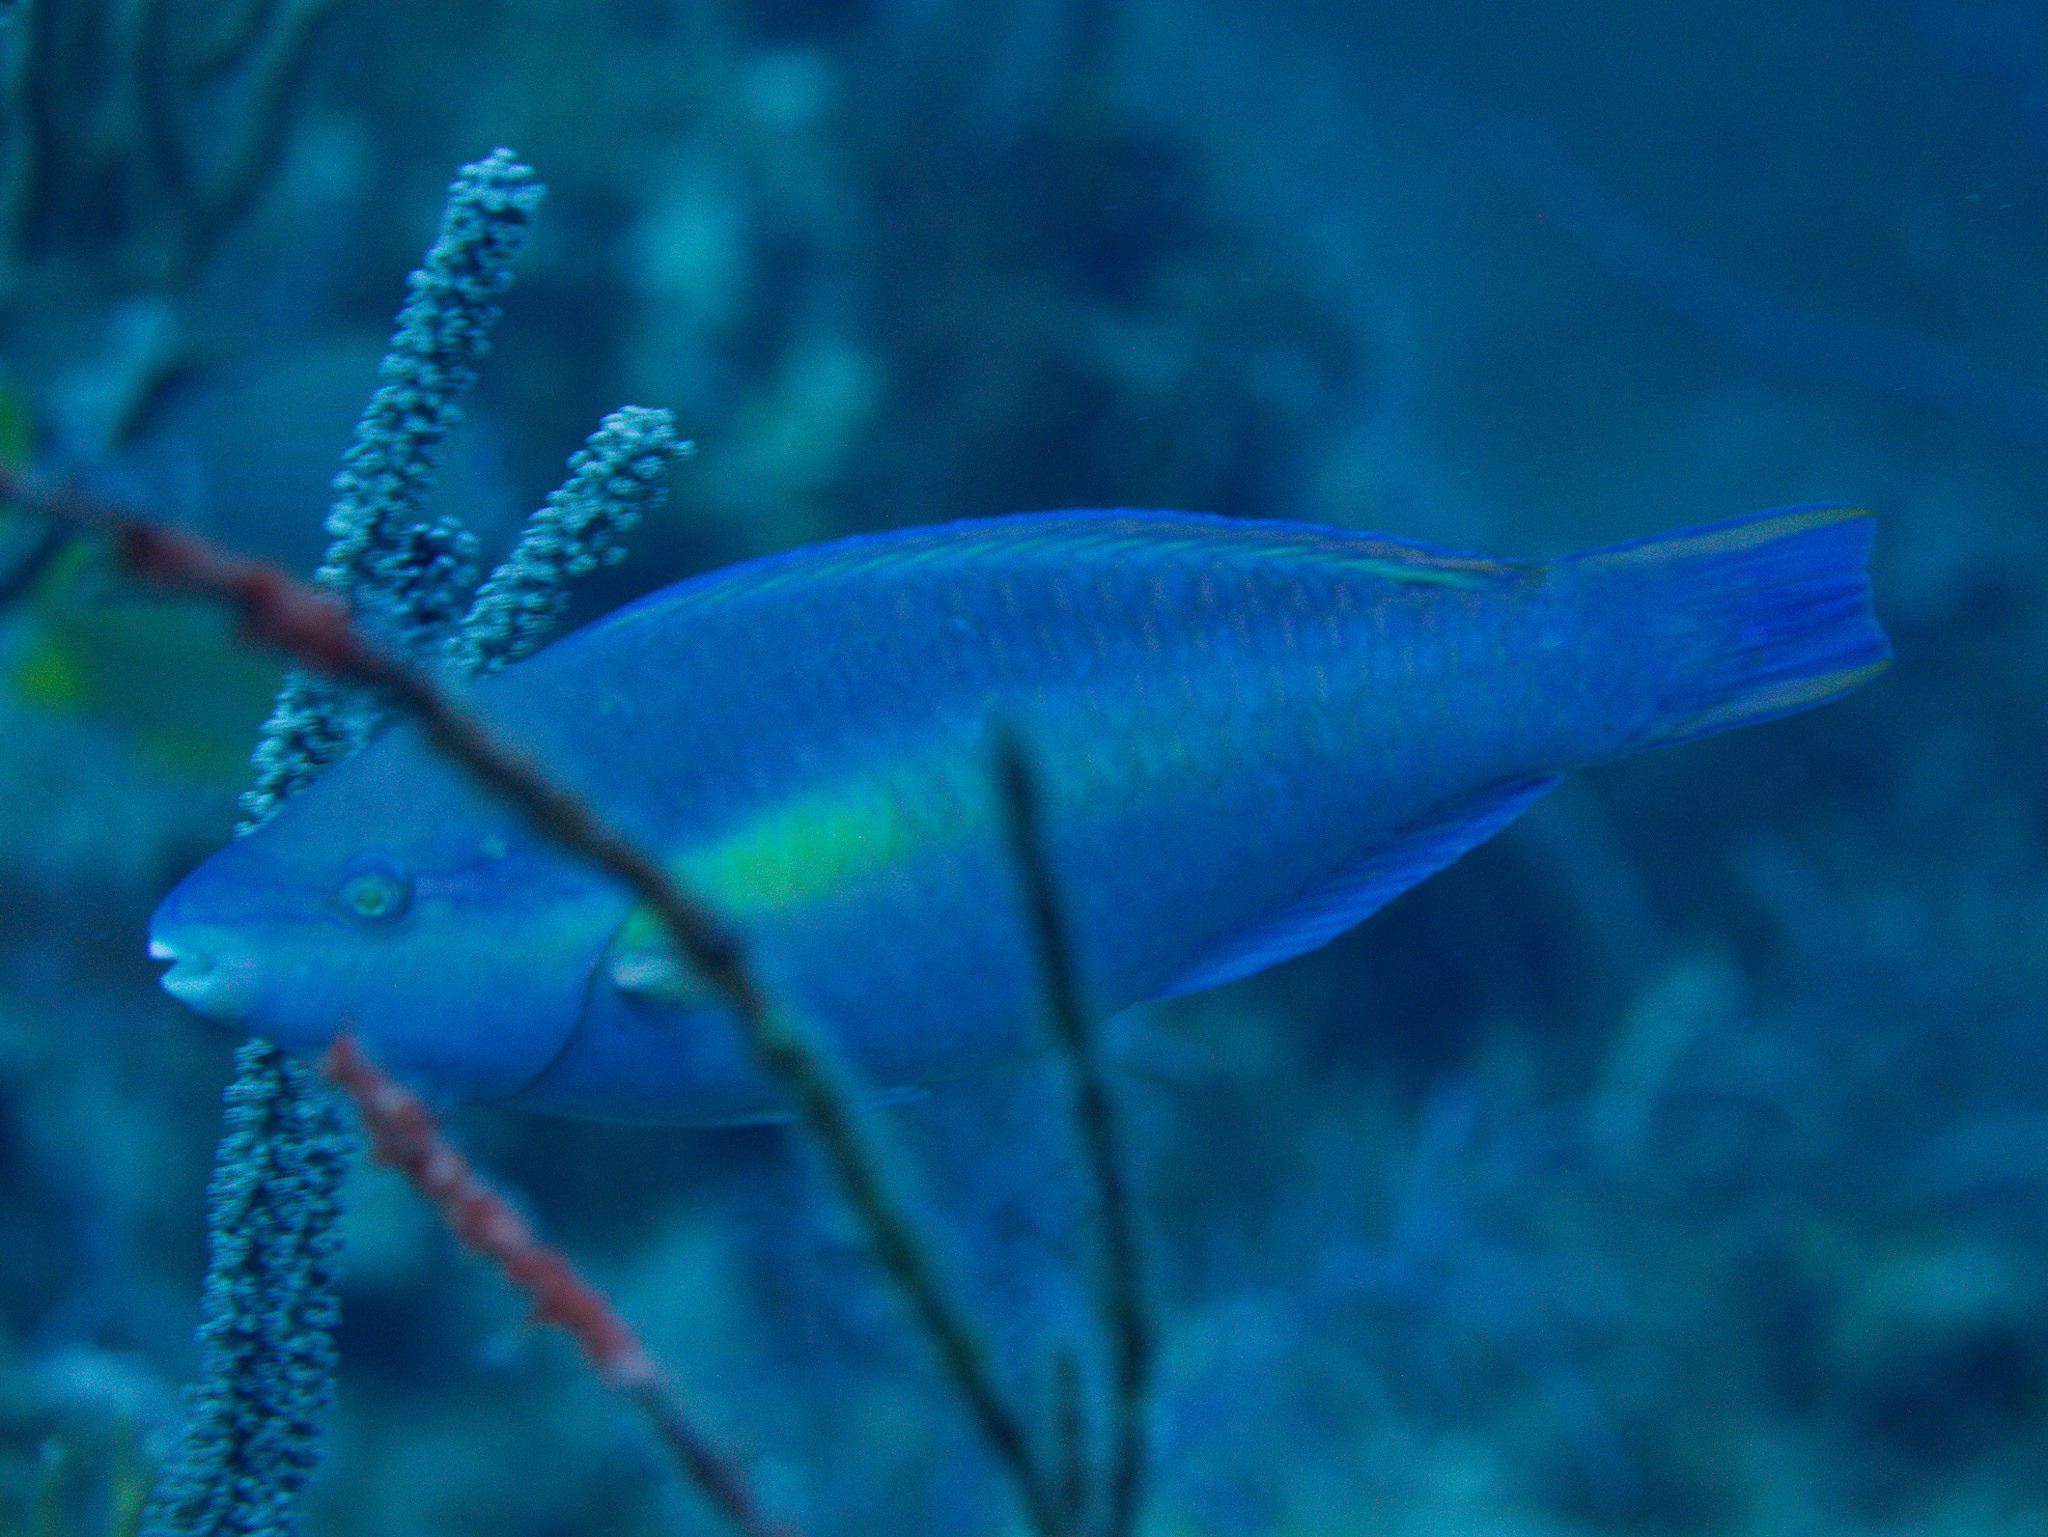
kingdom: Animalia
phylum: Chordata
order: Perciformes
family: Scaridae
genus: Scarus
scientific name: Scarus taeniopterus
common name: Princess parrotfish
